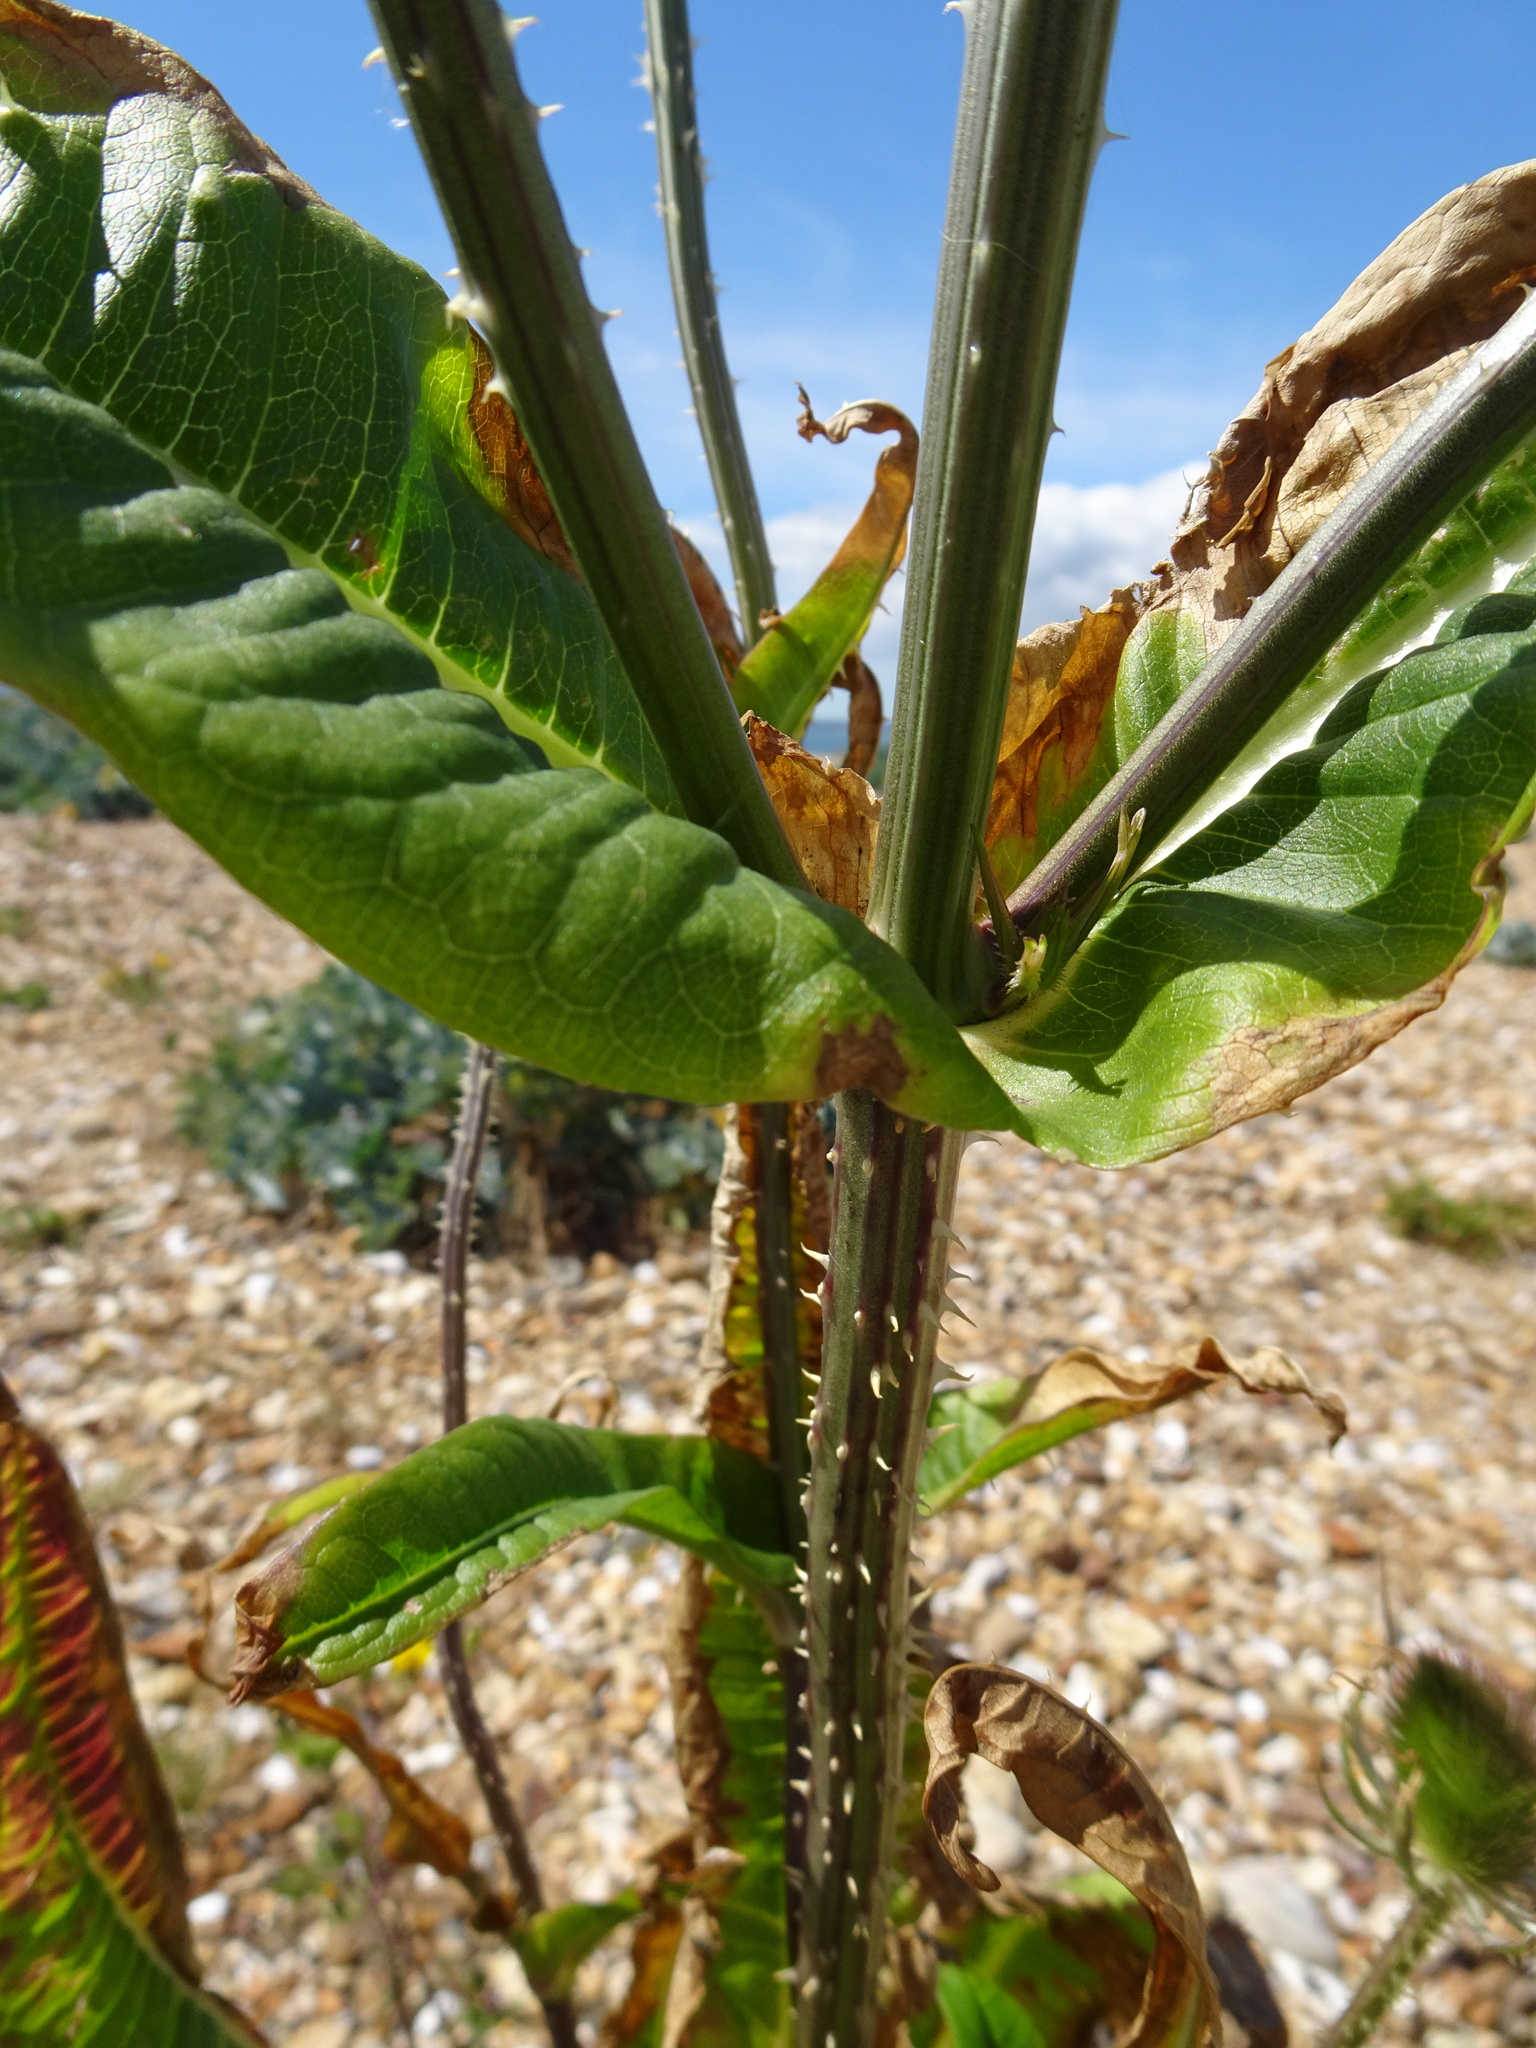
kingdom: Plantae
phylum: Tracheophyta
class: Magnoliopsida
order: Dipsacales
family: Caprifoliaceae
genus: Dipsacus
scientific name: Dipsacus fullonum
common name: Teasel
